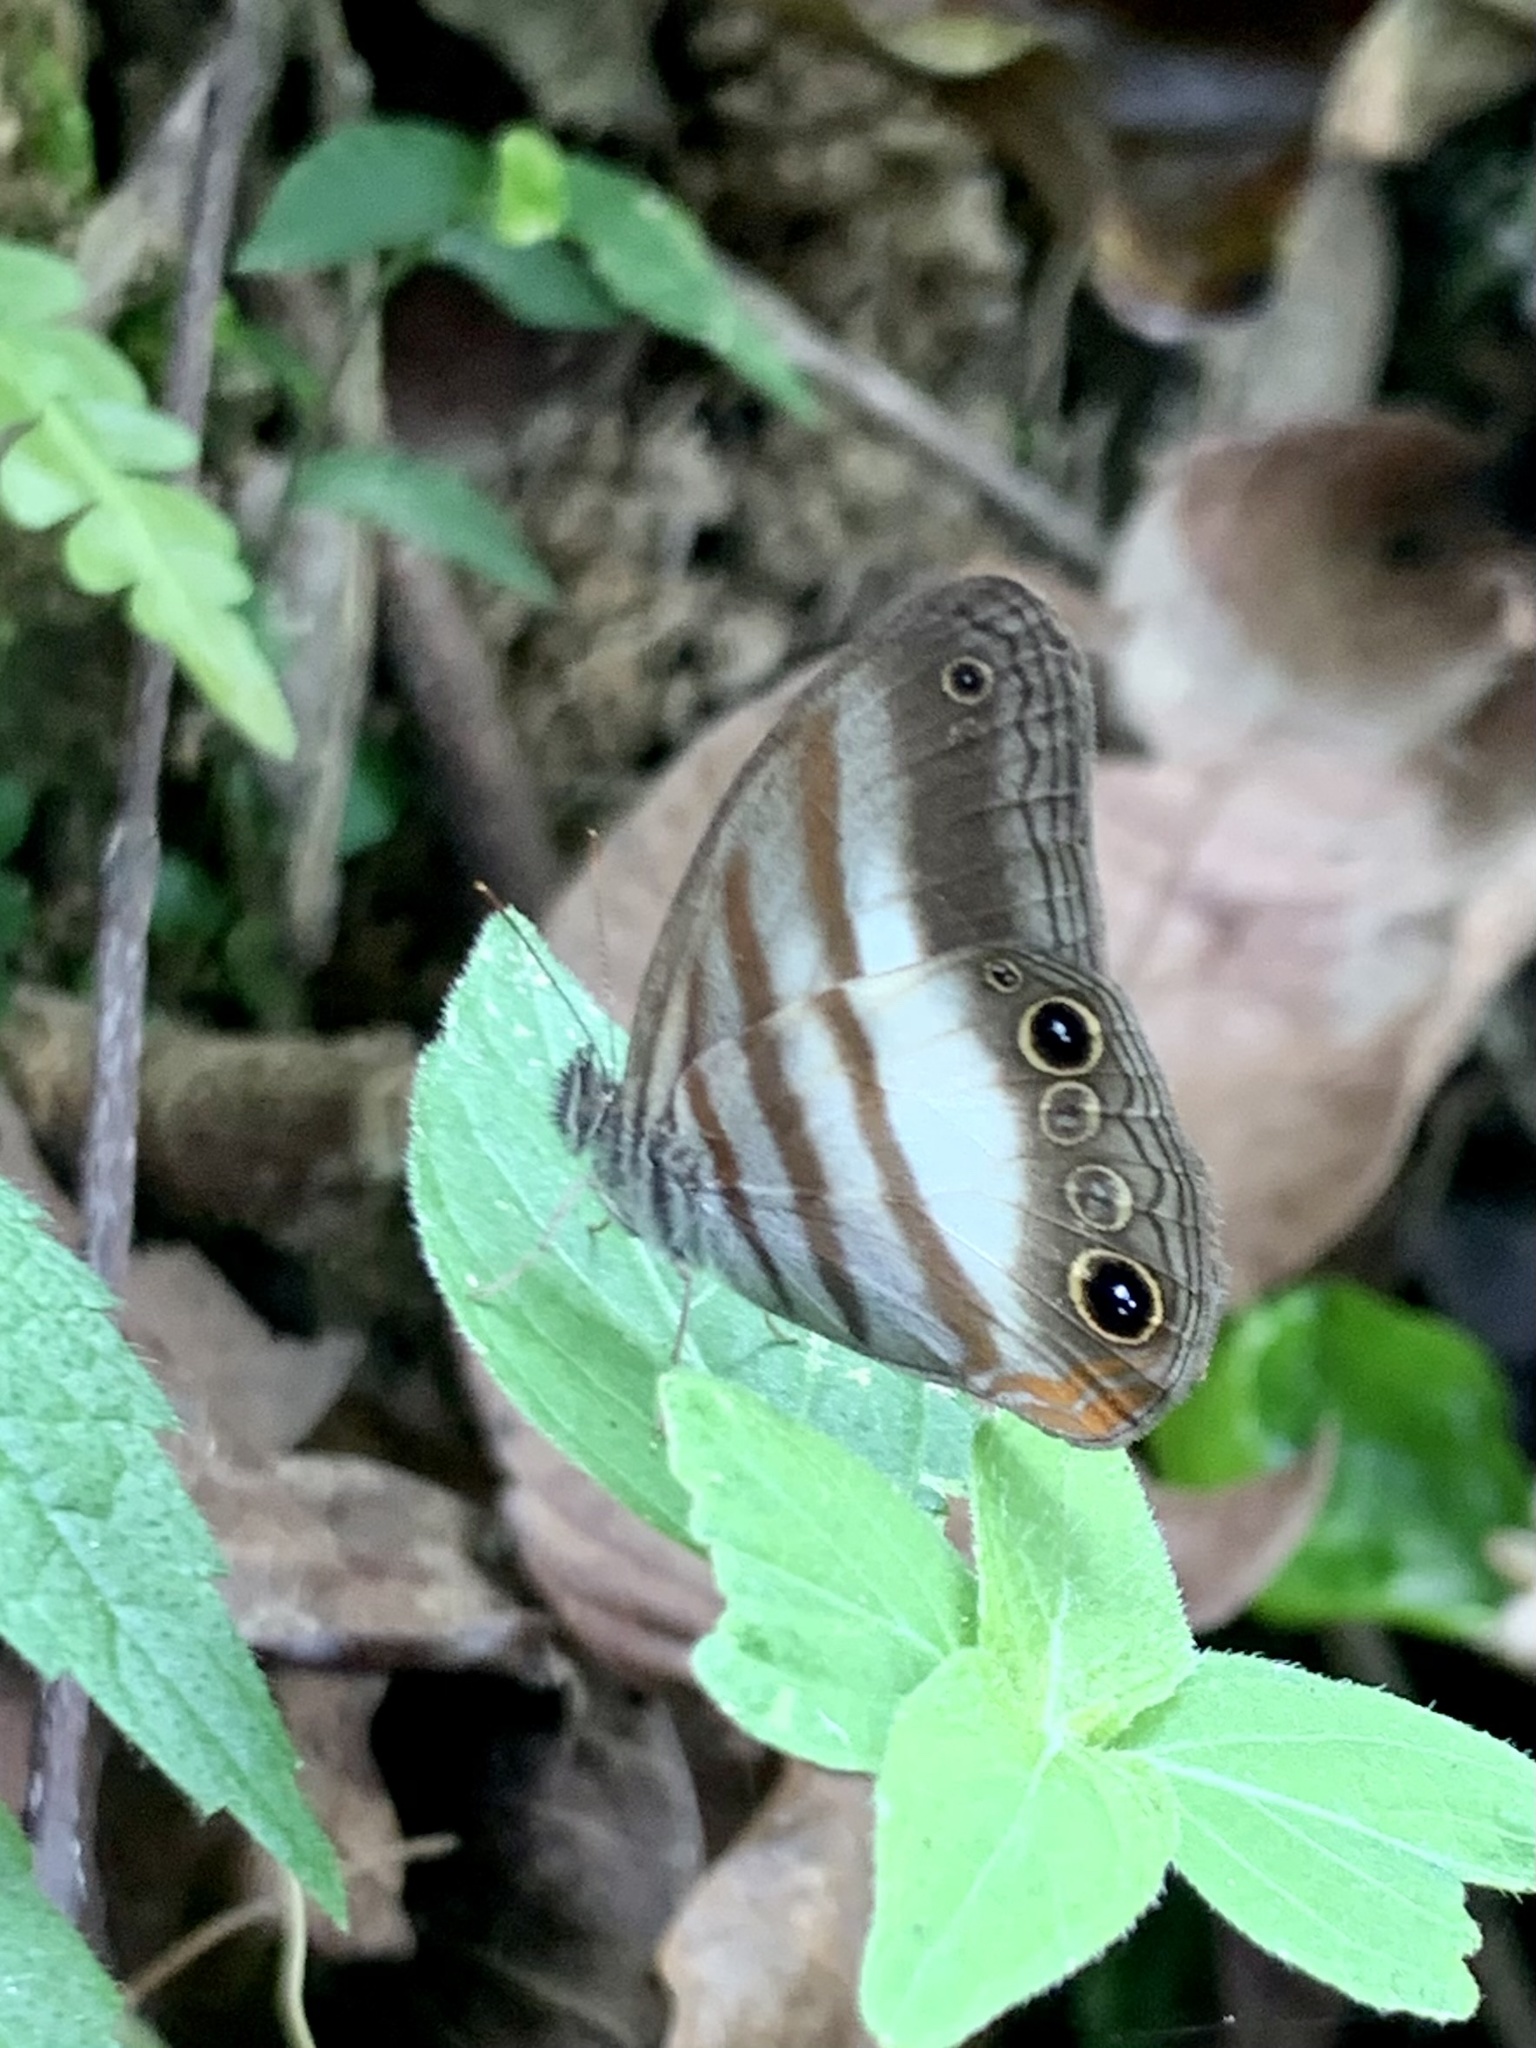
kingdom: Animalia
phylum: Arthropoda
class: Insecta
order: Lepidoptera
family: Nymphalidae
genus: Pareuptychia
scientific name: Pareuptychia metaleuca
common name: White-banded satyr
